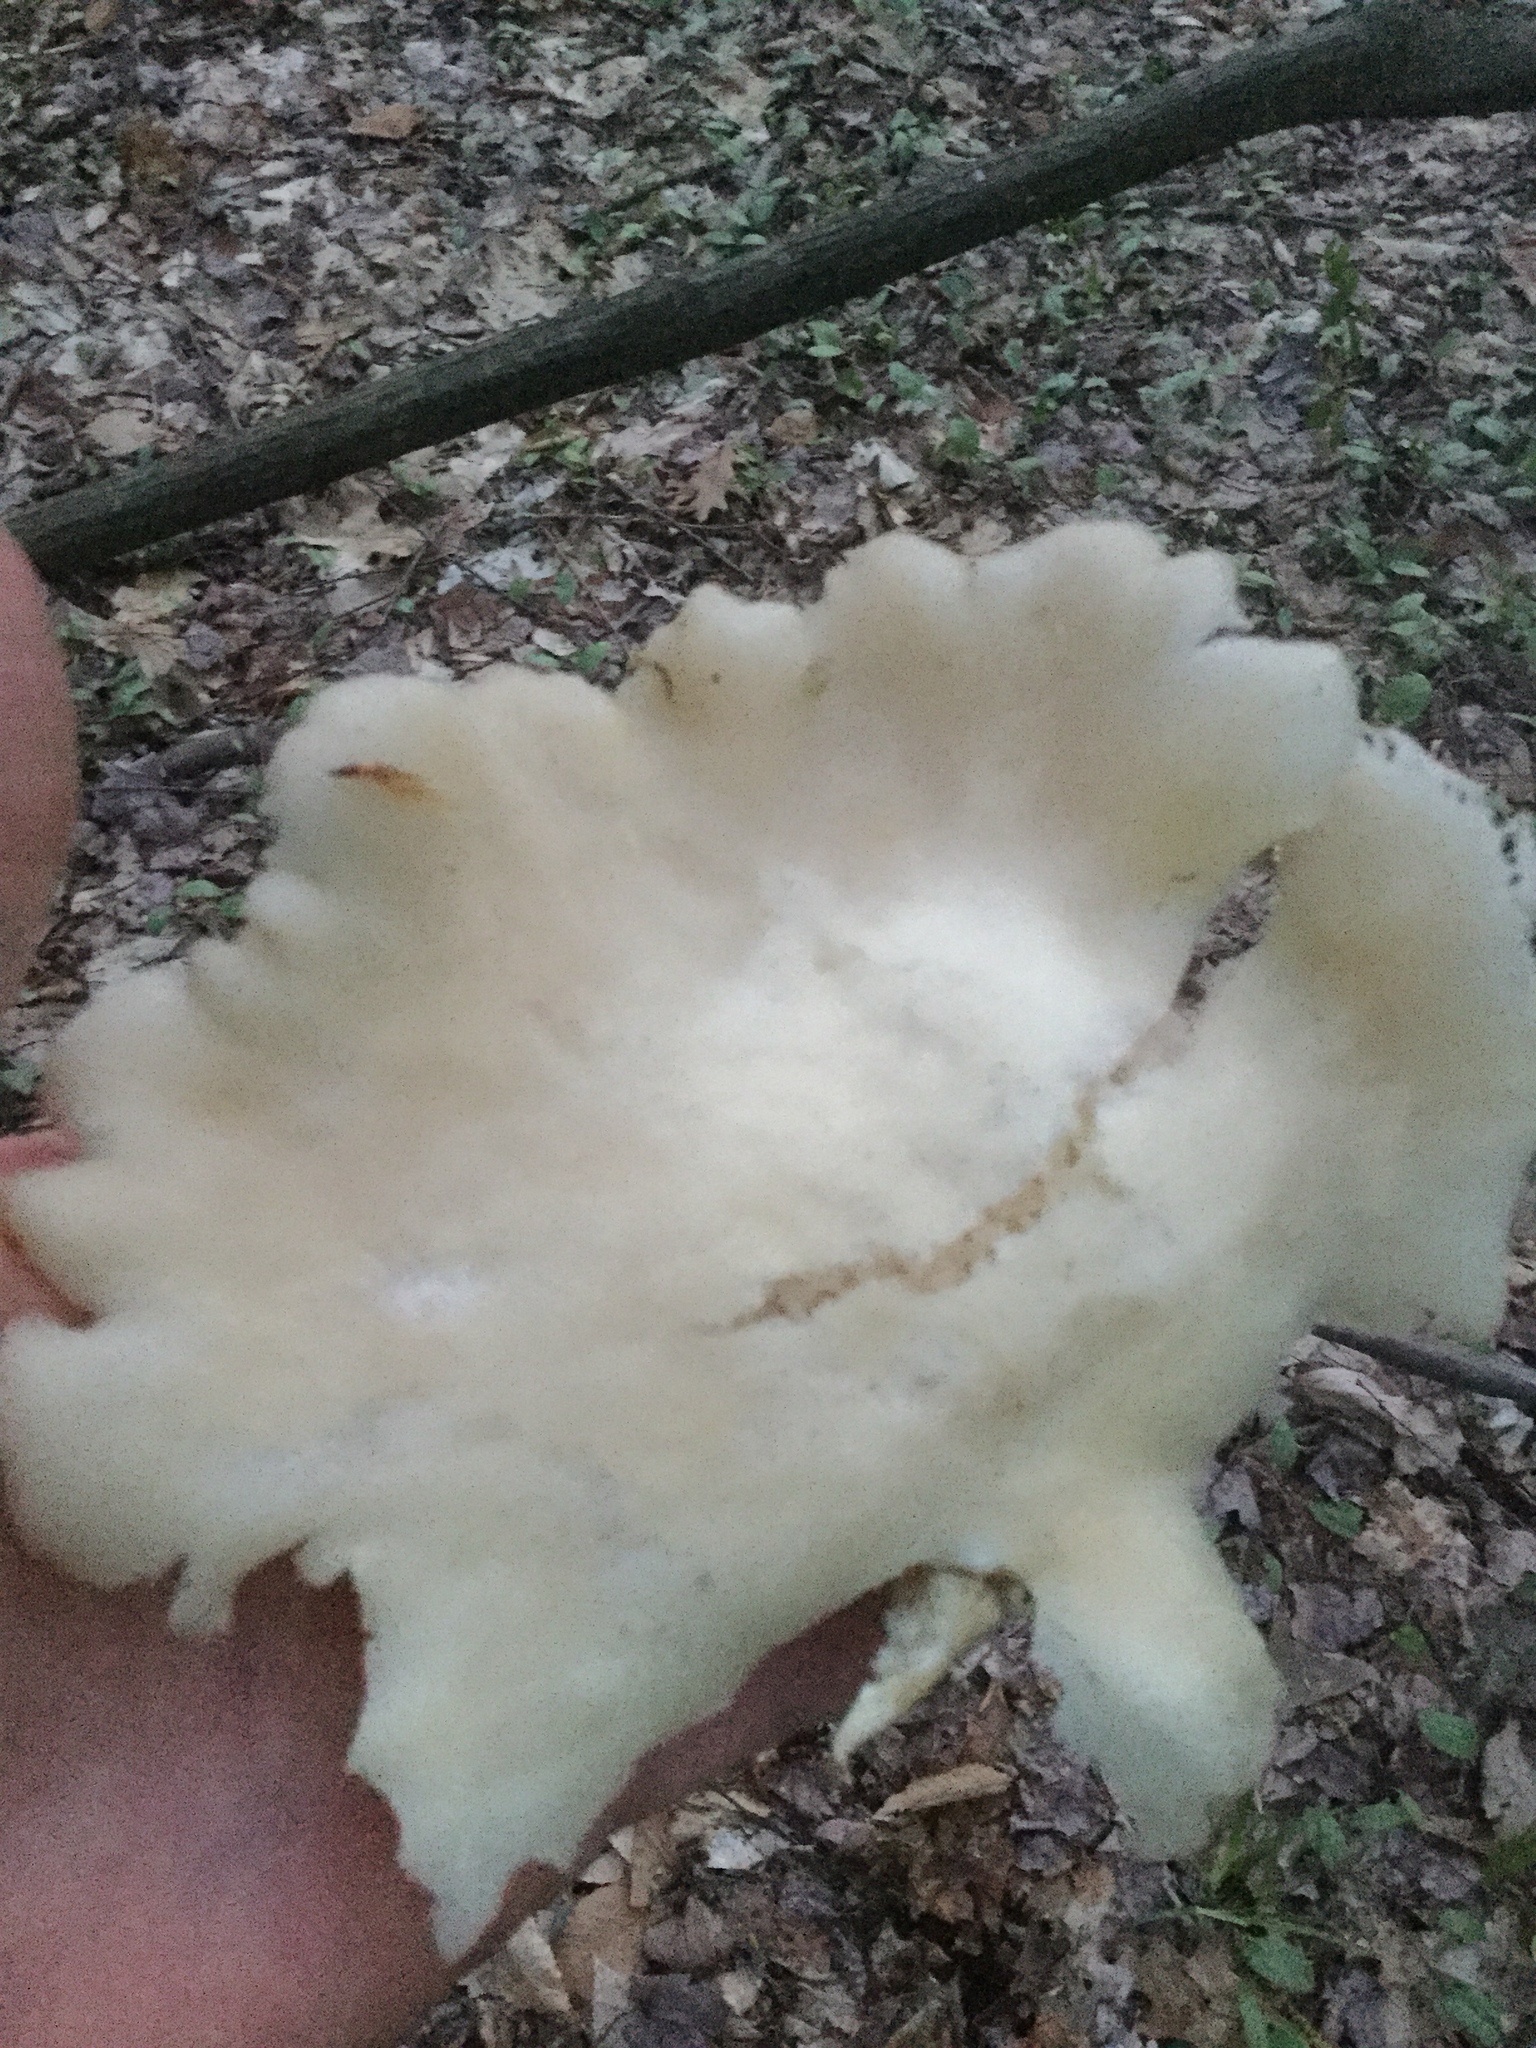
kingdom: Fungi
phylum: Basidiomycota
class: Agaricomycetes
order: Agaricales
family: Pleurotaceae
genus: Pleurotus
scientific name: Pleurotus populinus
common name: Aspen oyster mushroom
